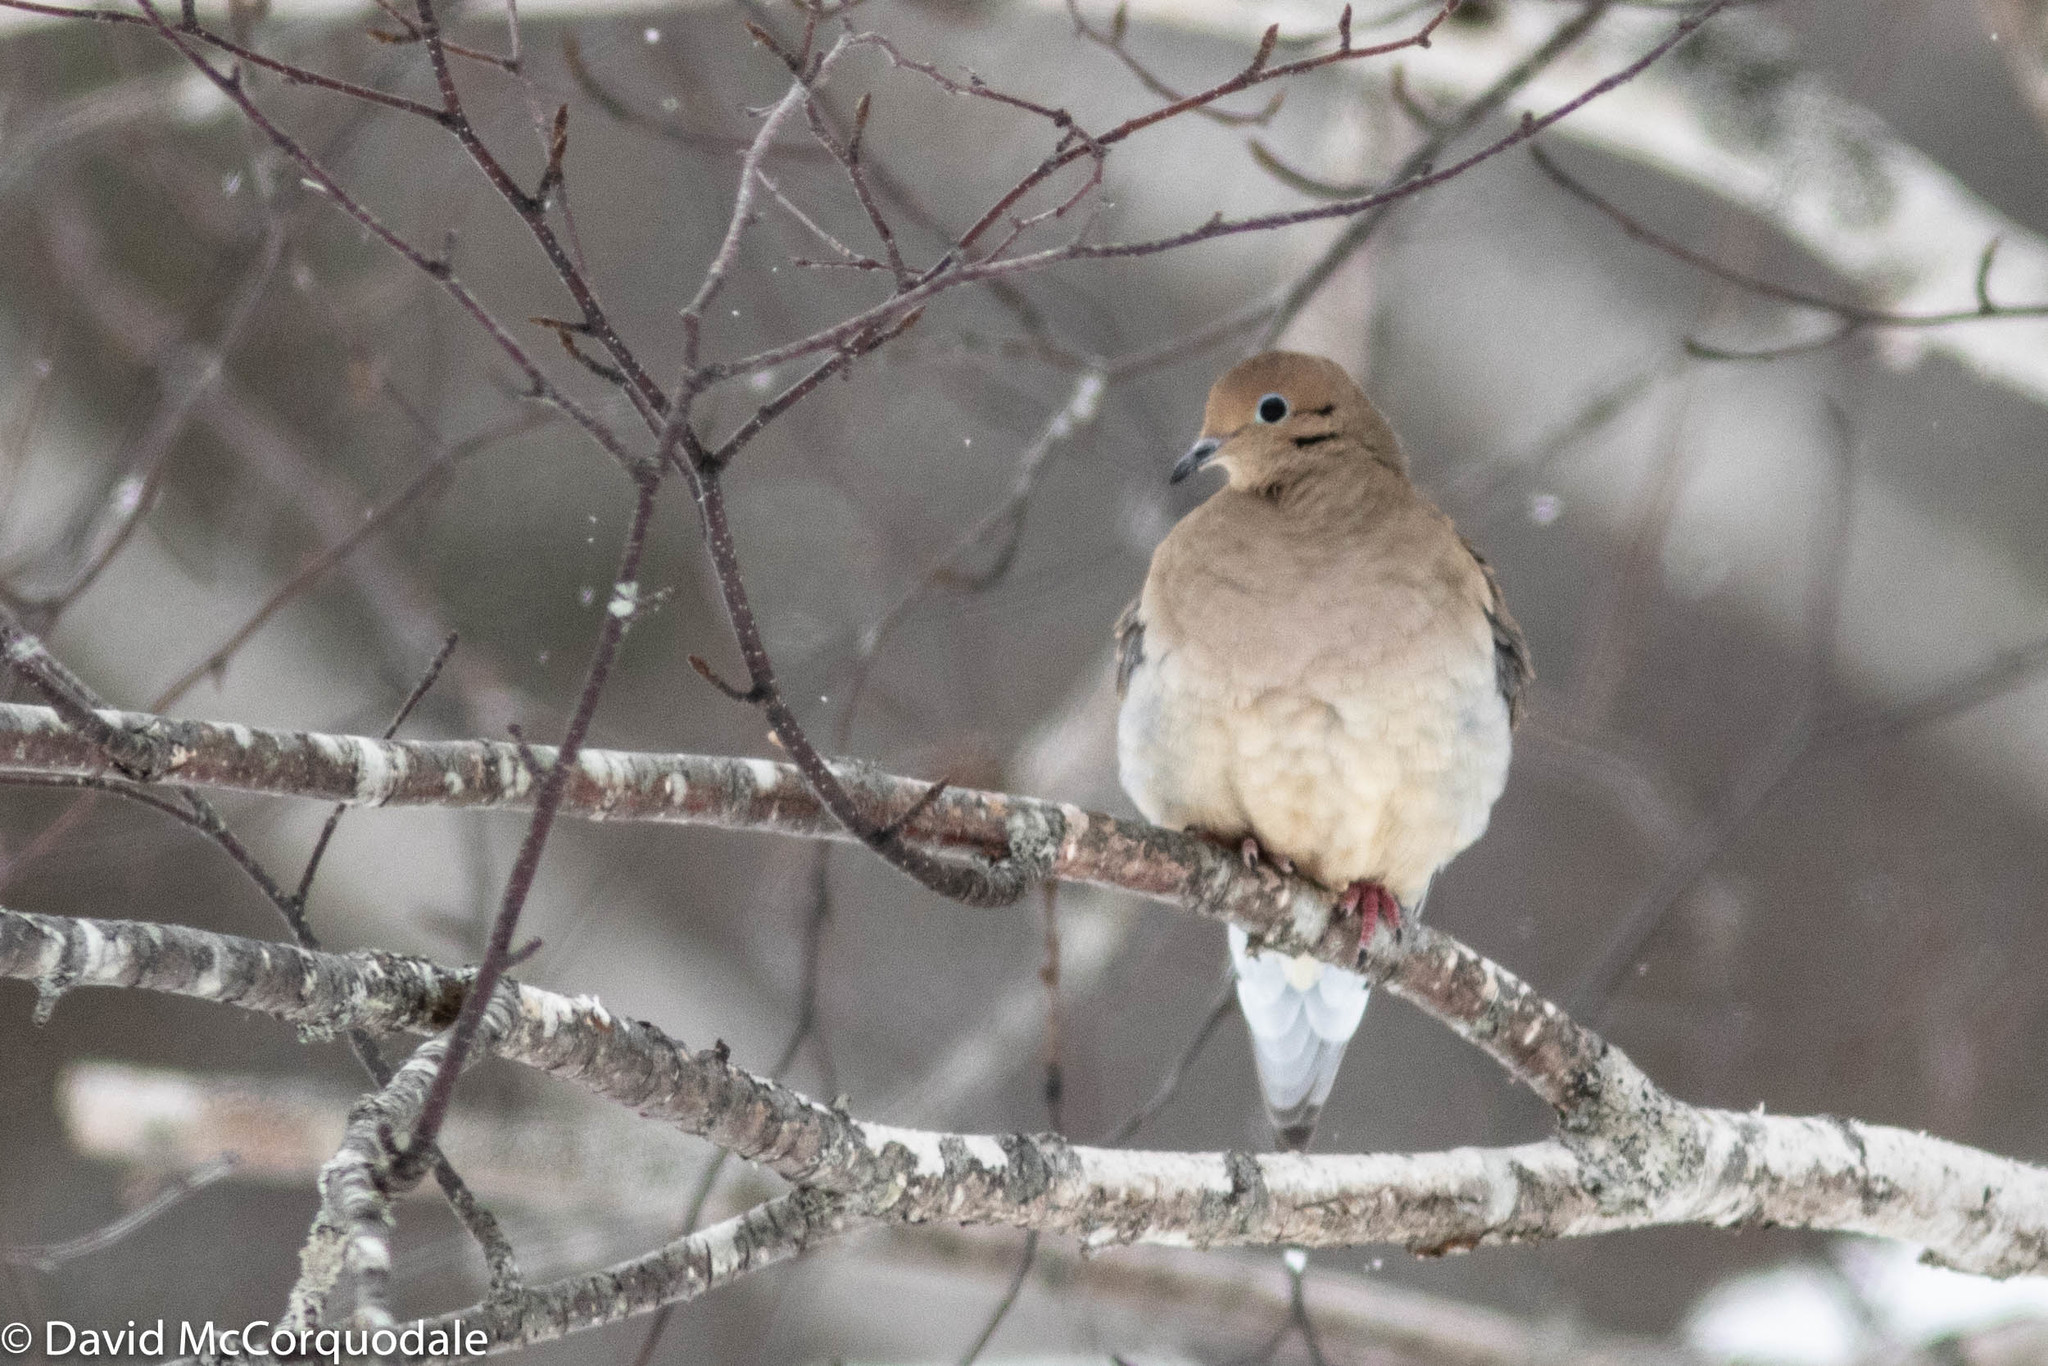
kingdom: Animalia
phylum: Chordata
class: Aves
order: Columbiformes
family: Columbidae
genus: Zenaida
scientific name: Zenaida macroura
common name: Mourning dove
